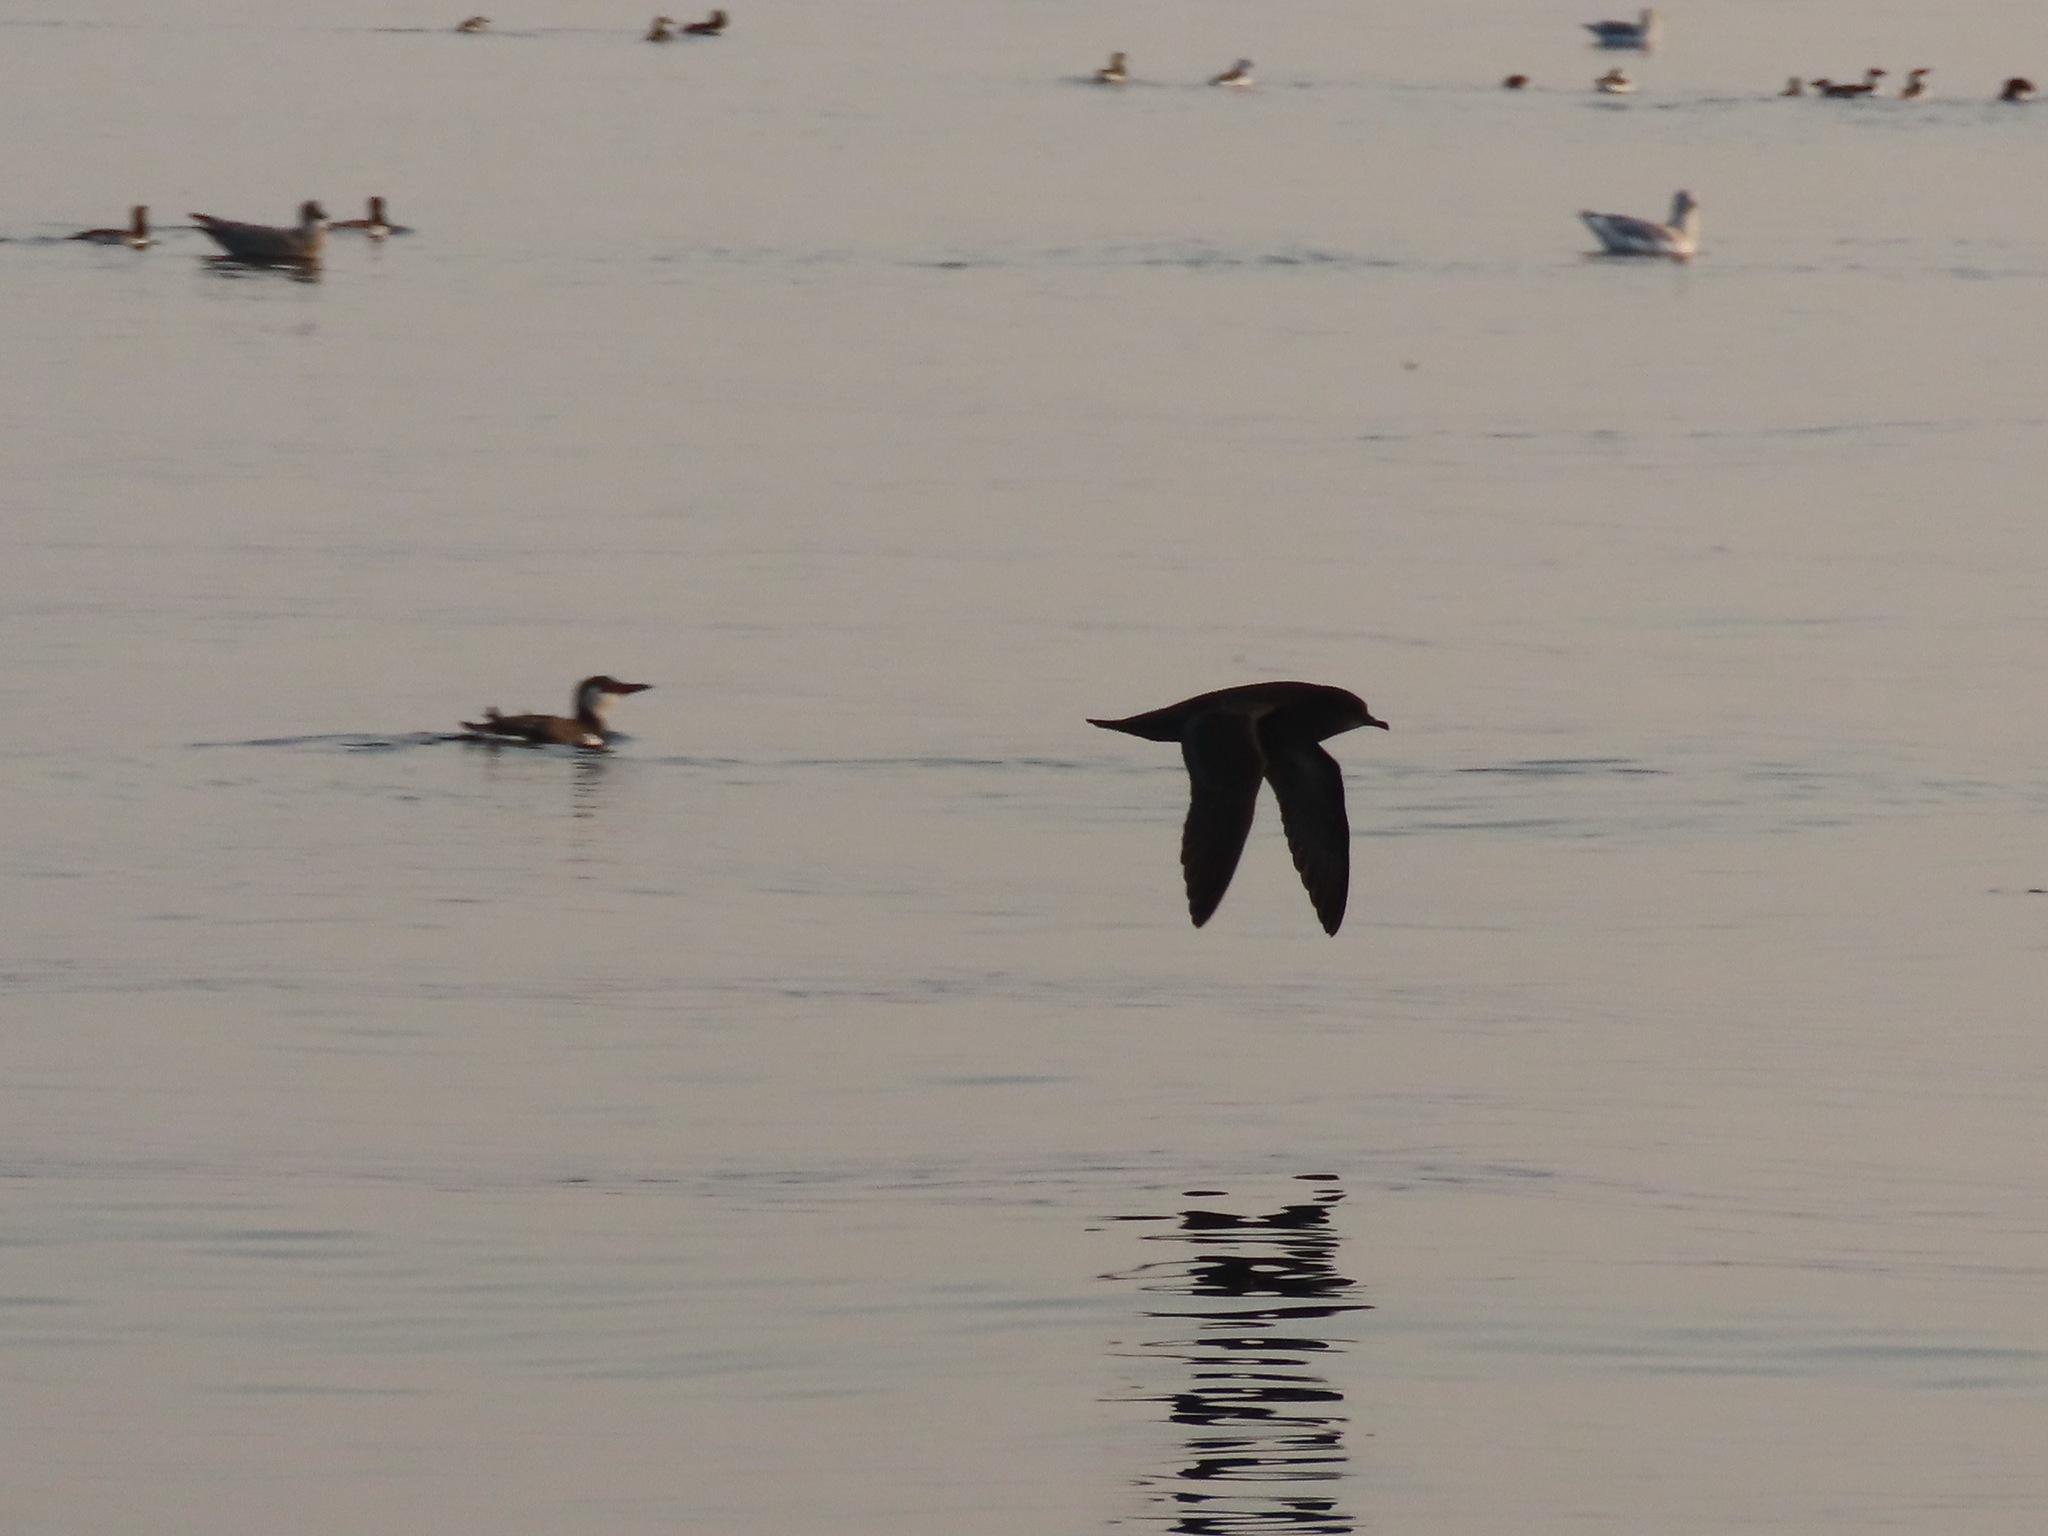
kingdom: Animalia
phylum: Chordata
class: Aves
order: Procellariiformes
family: Procellariidae
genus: Puffinus
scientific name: Puffinus tenuirostris
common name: Short-tailed shearwater
